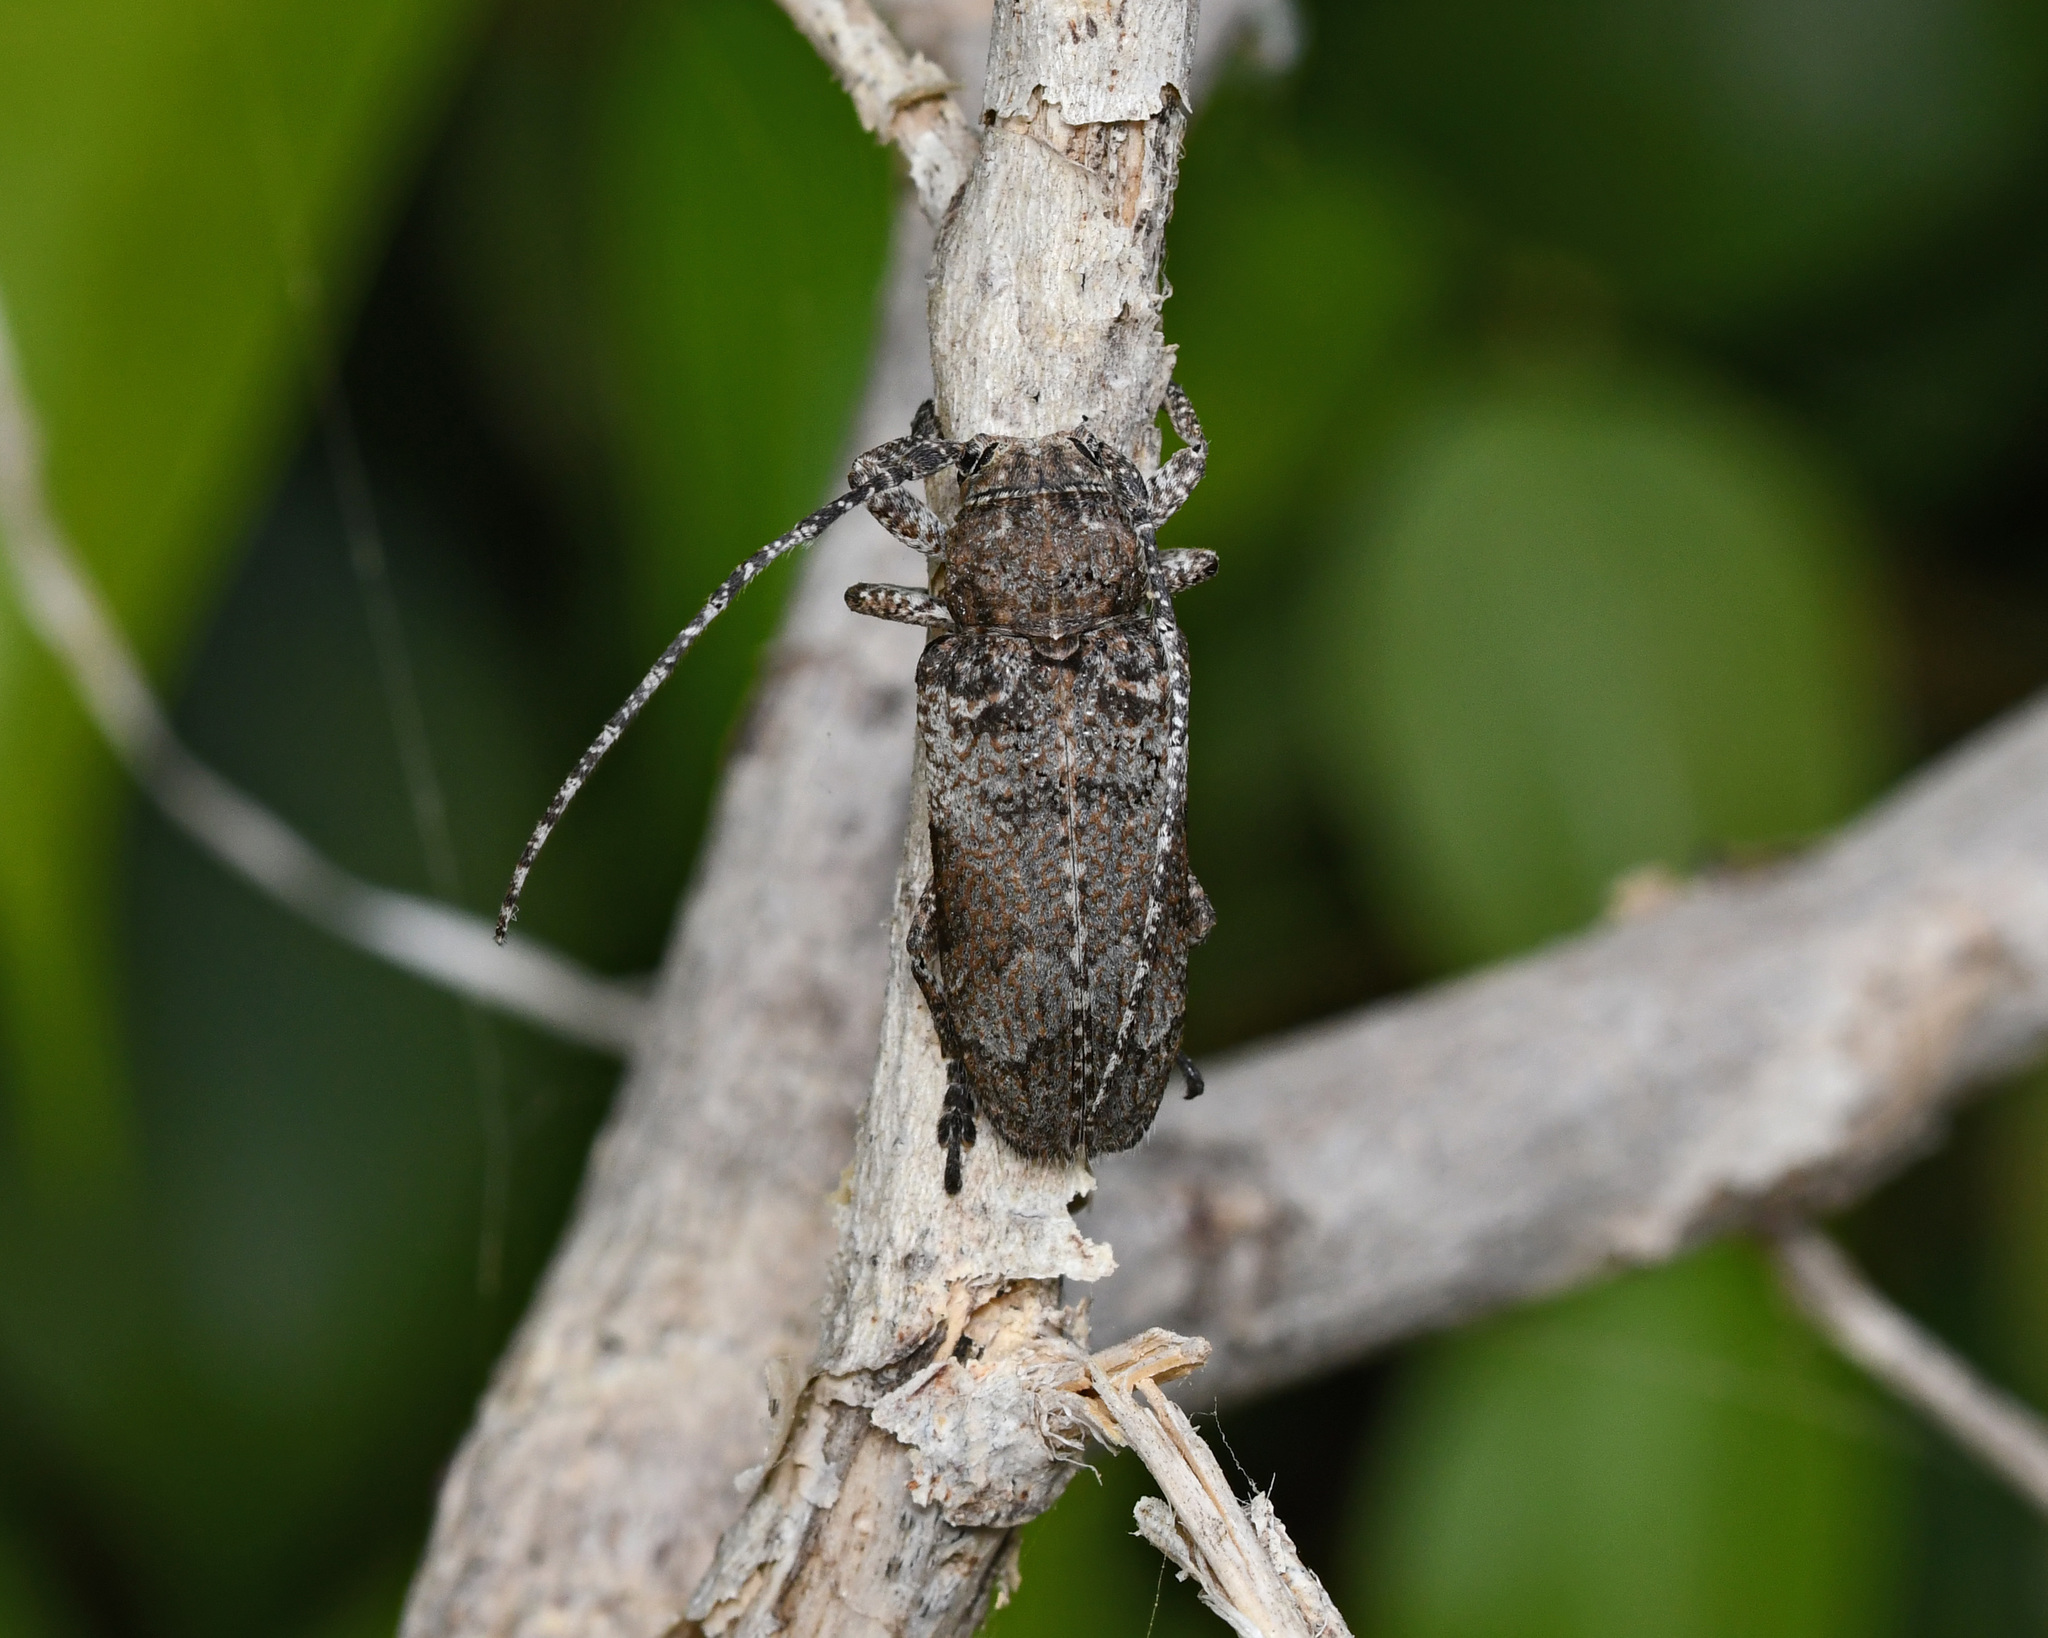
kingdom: Animalia
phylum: Arthropoda
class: Insecta
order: Coleoptera
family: Cerambycidae
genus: Niphona
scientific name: Niphona picticornis
